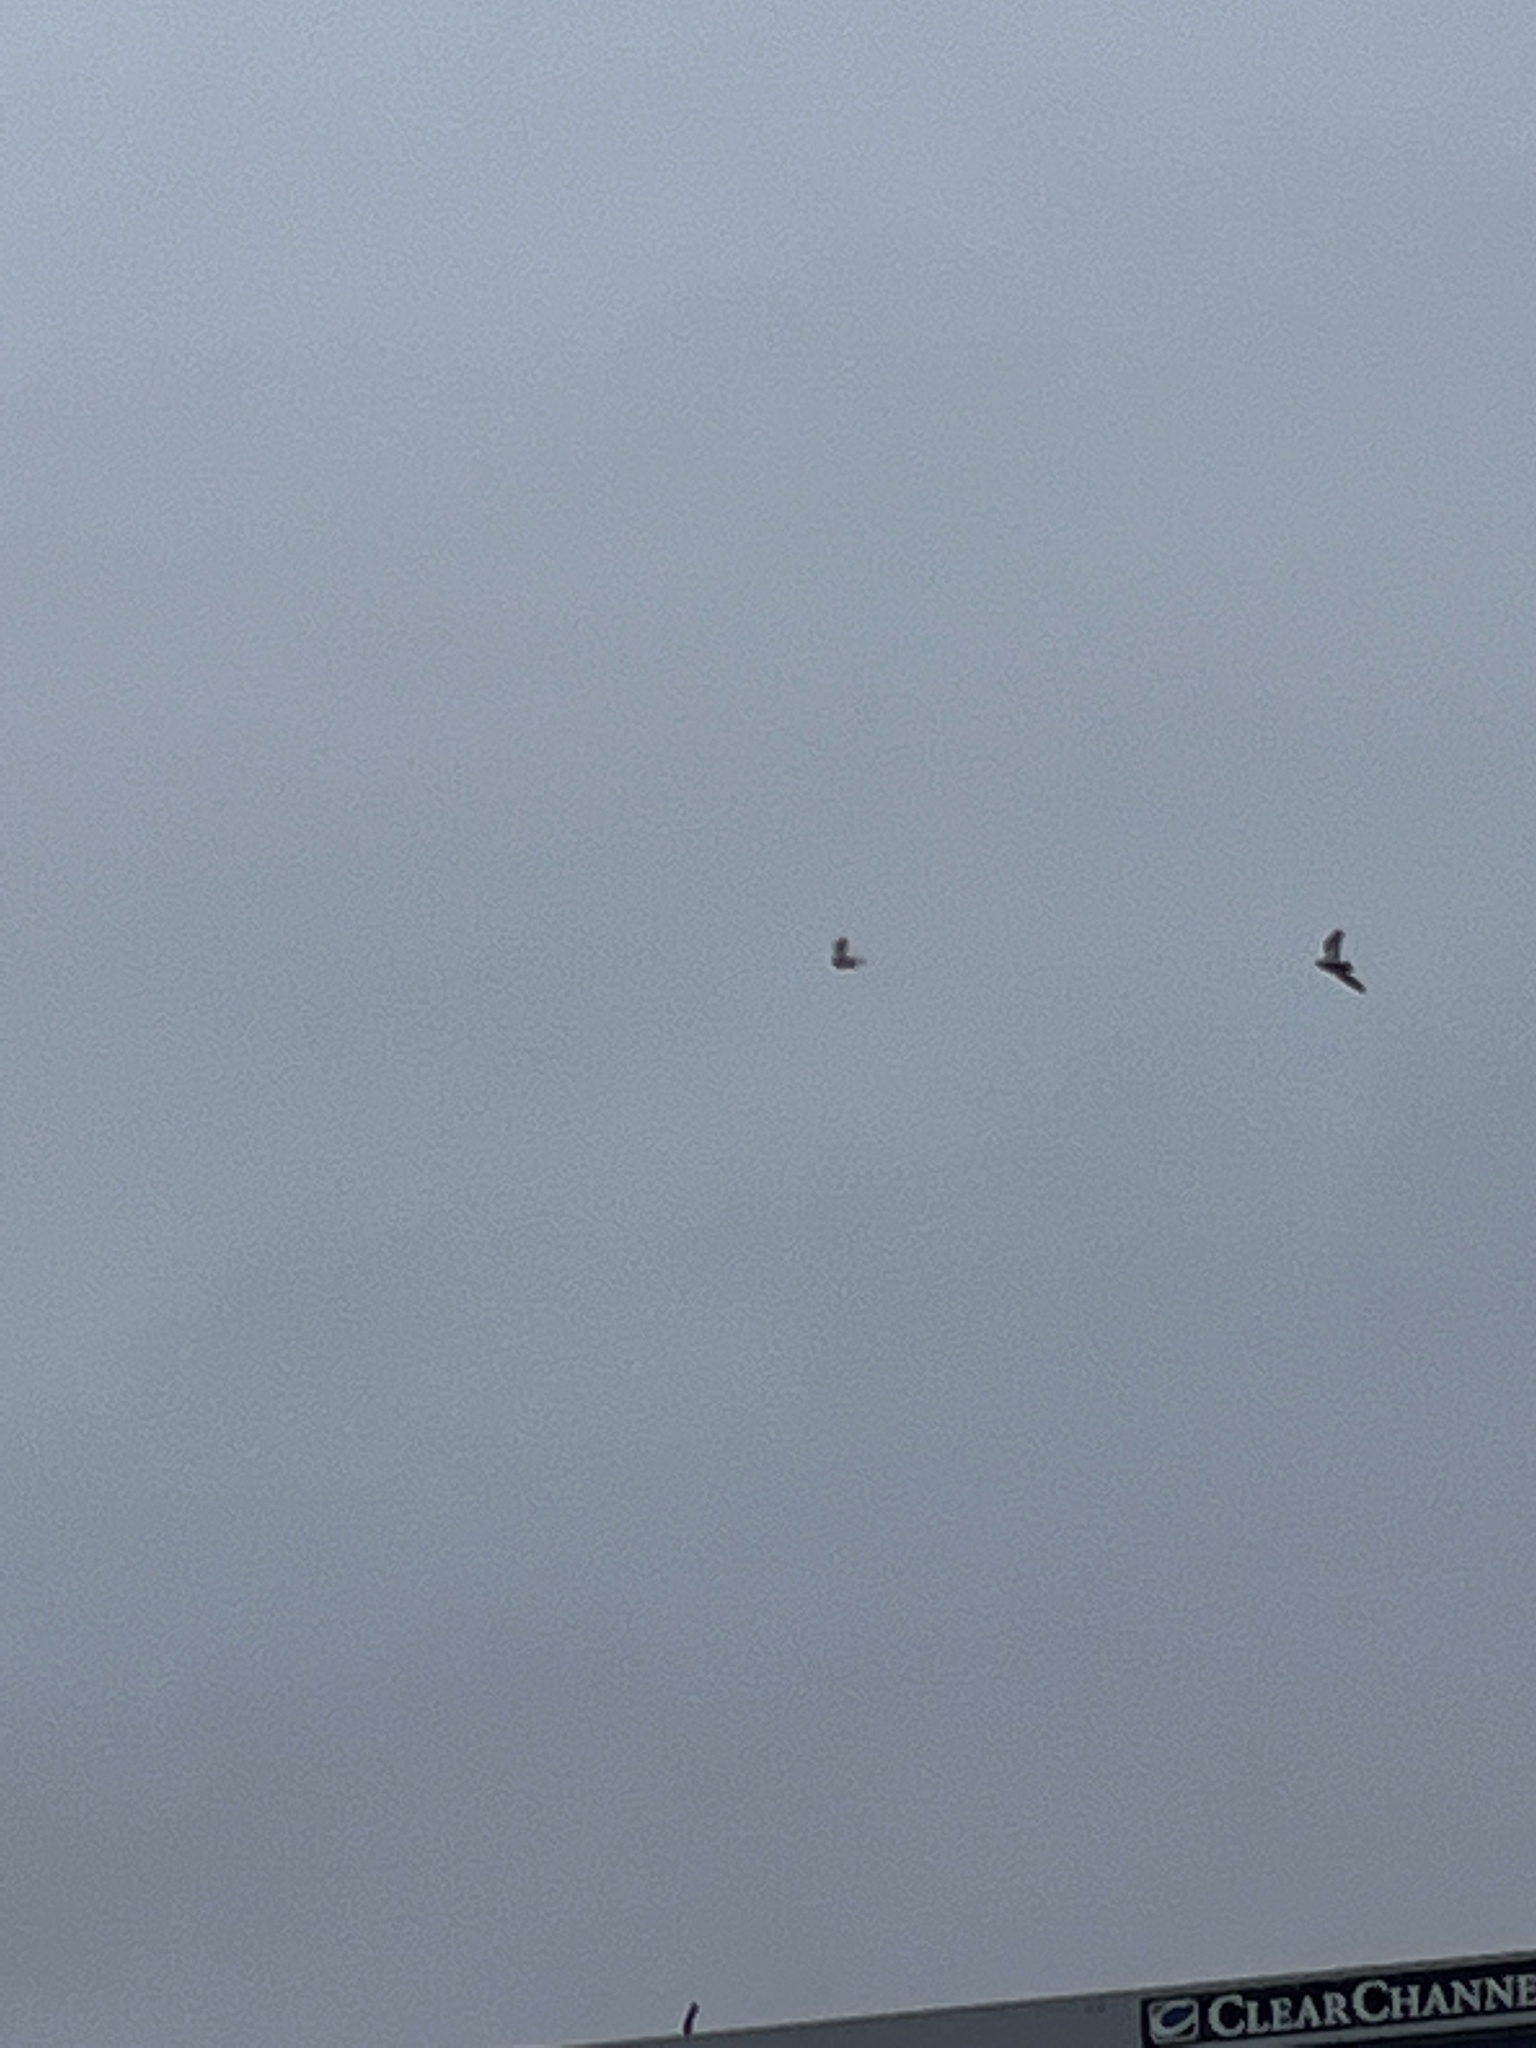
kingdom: Animalia
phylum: Chordata
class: Aves
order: Columbiformes
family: Columbidae
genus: Columba
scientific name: Columba livia
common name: Rock pigeon
